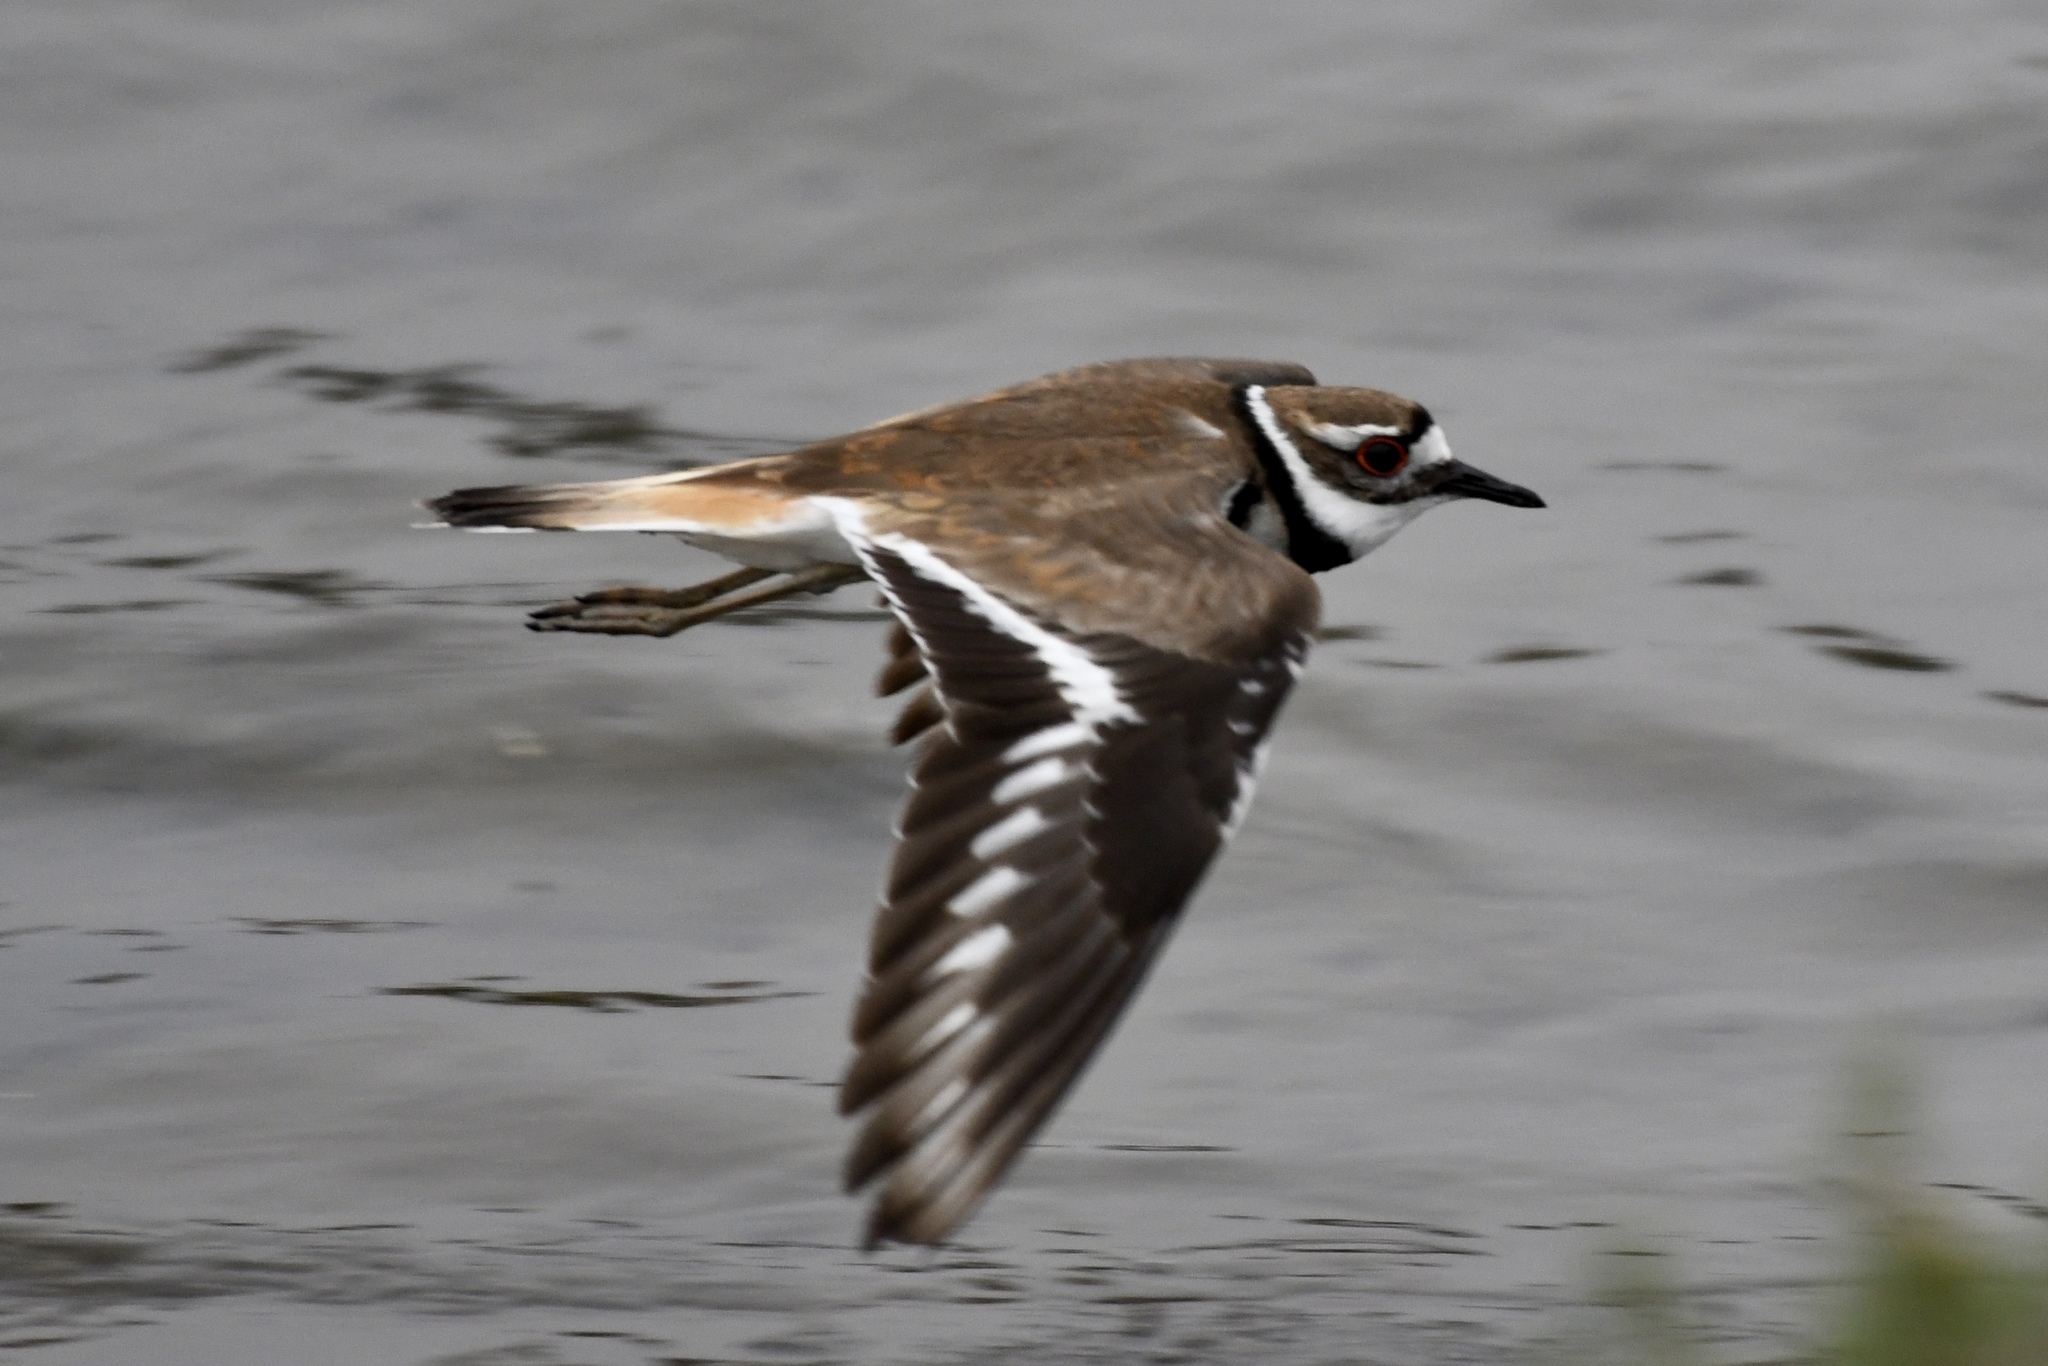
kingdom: Animalia
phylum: Chordata
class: Aves
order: Charadriiformes
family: Charadriidae
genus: Charadrius
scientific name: Charadrius vociferus
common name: Killdeer
